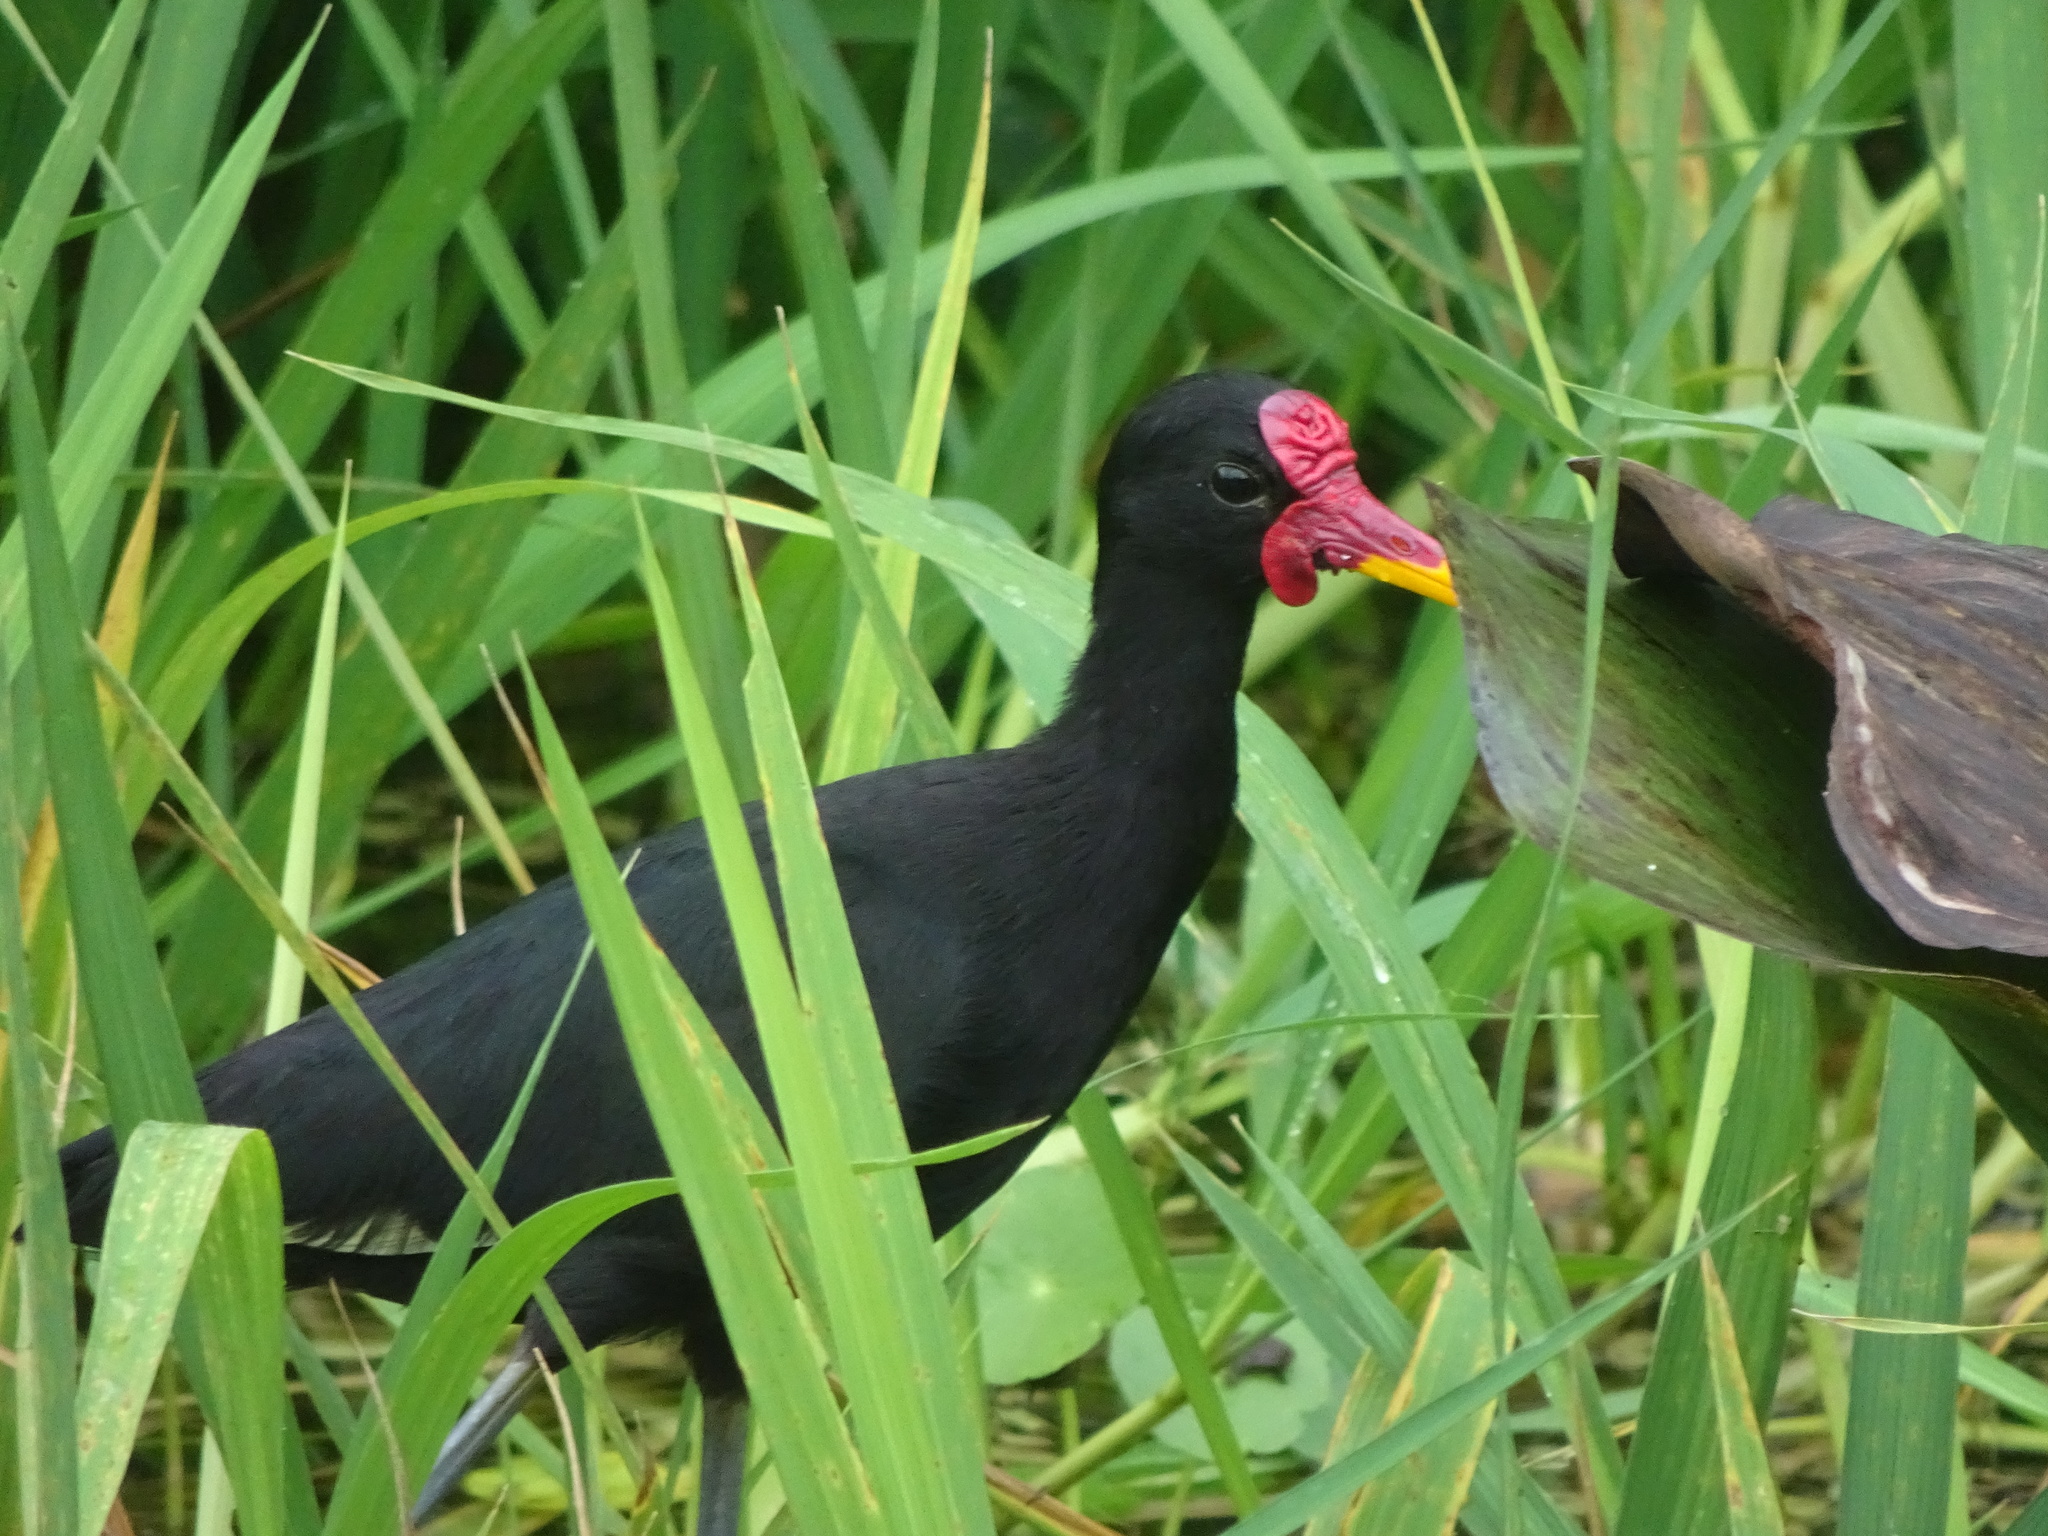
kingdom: Animalia
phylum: Chordata
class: Aves
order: Charadriiformes
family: Jacanidae
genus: Jacana
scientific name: Jacana jacana
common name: Wattled jacana
